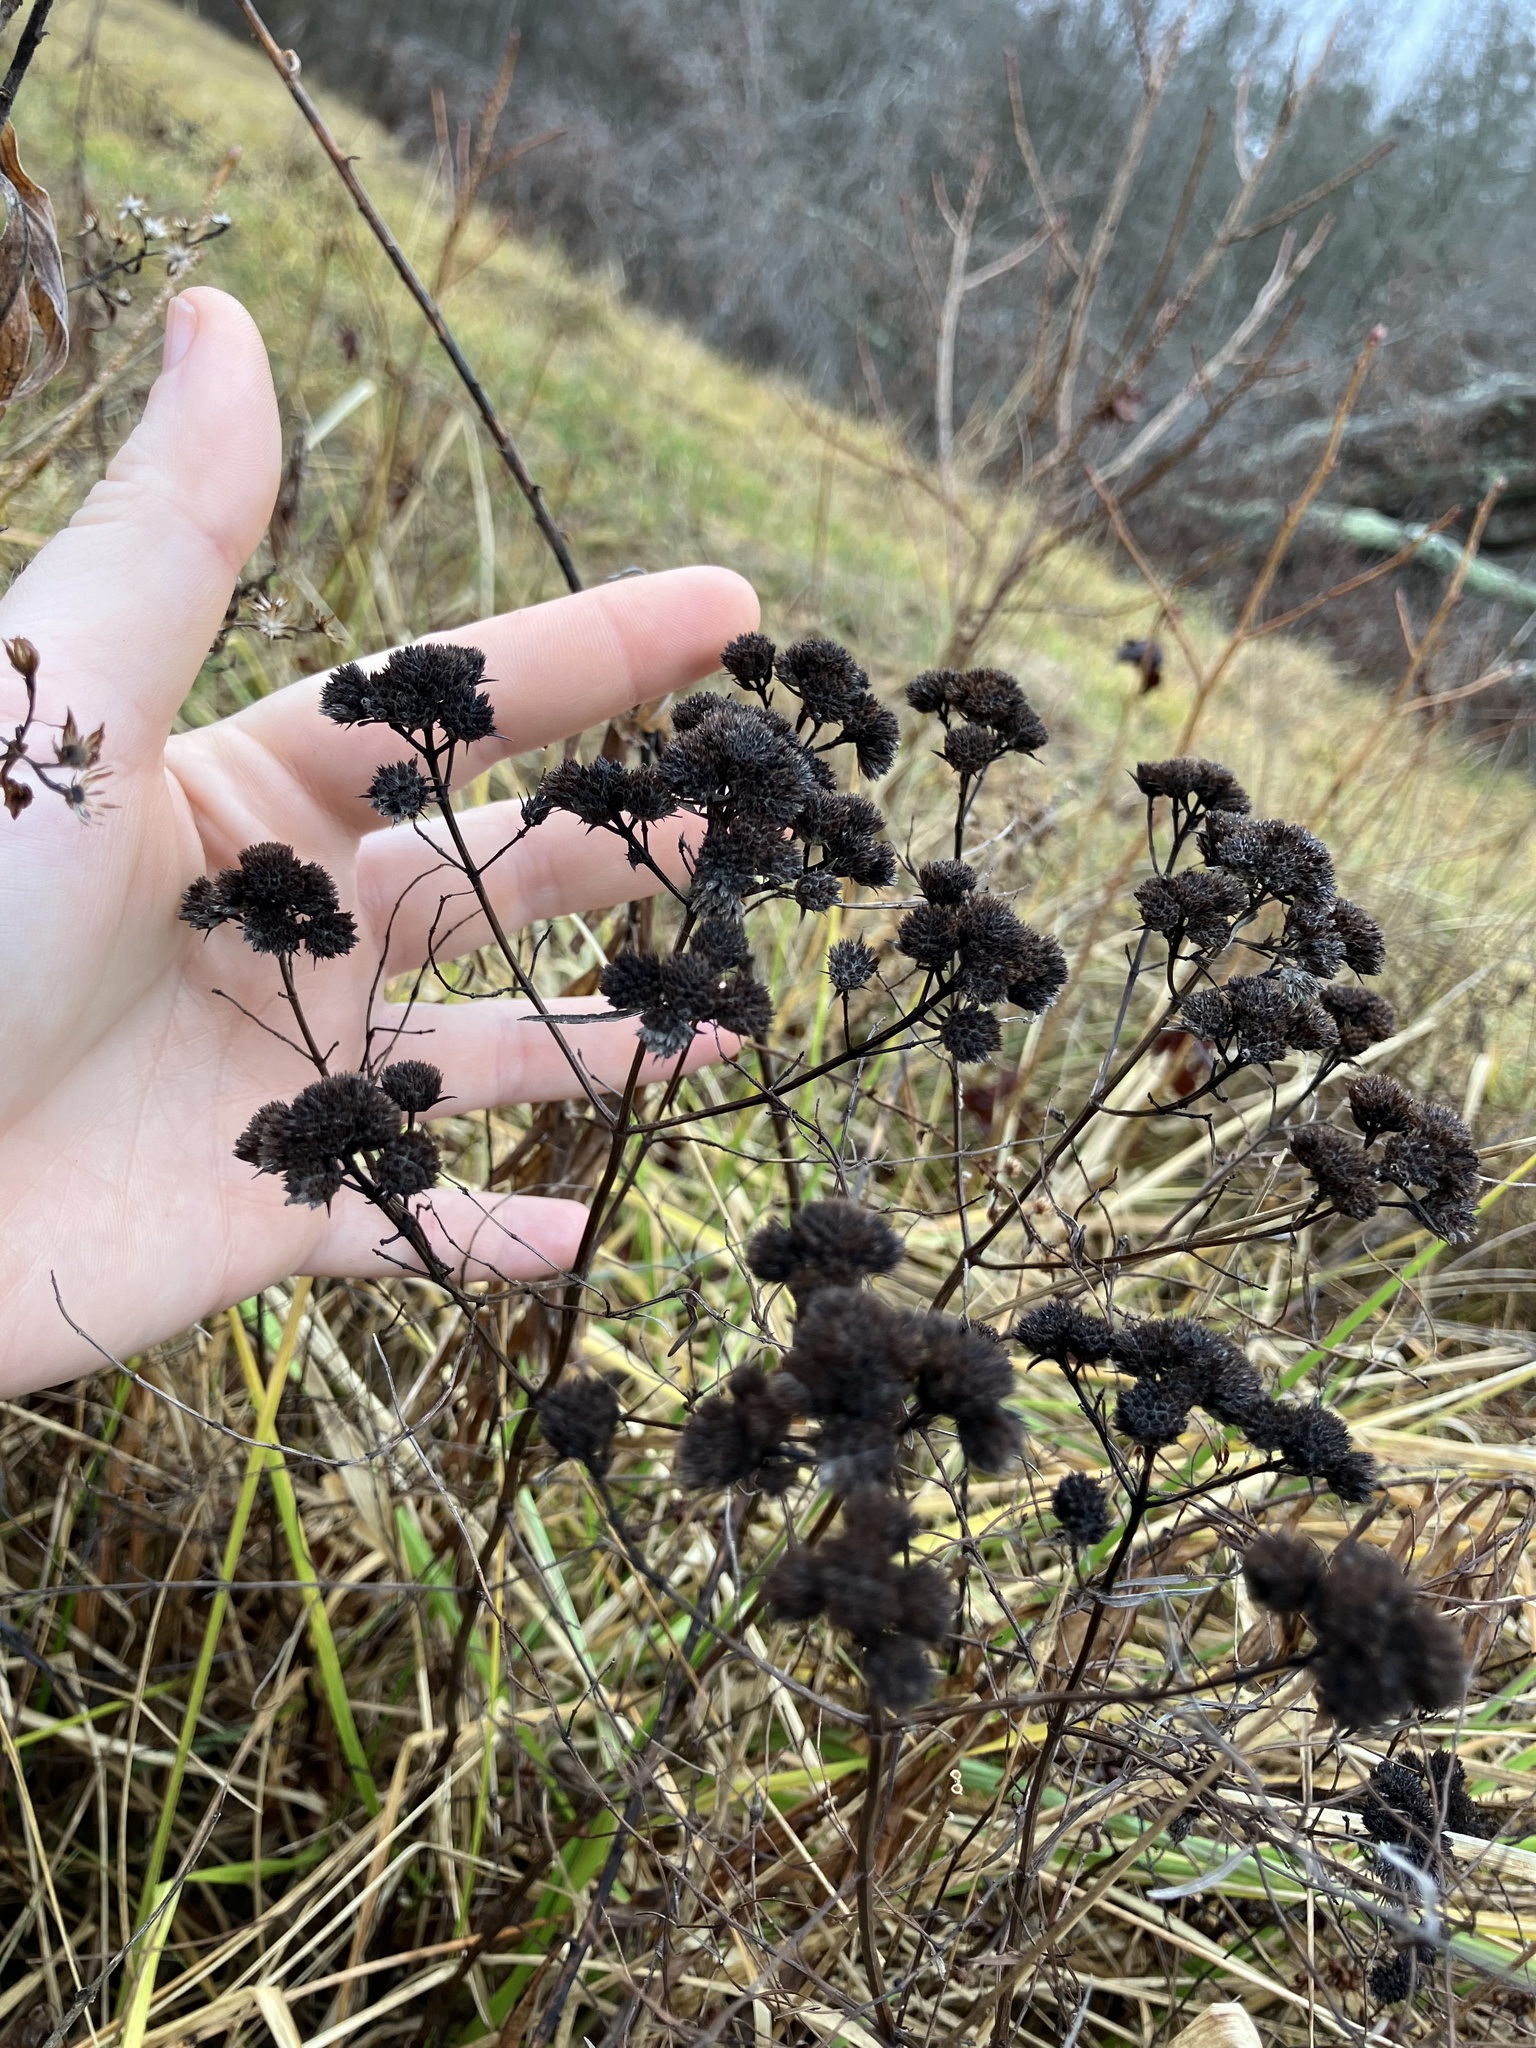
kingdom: Plantae
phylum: Tracheophyta
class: Magnoliopsida
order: Lamiales
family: Lamiaceae
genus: Pycnanthemum
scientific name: Pycnanthemum tenuifolium
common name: Narrow-leaf mountain-mint
